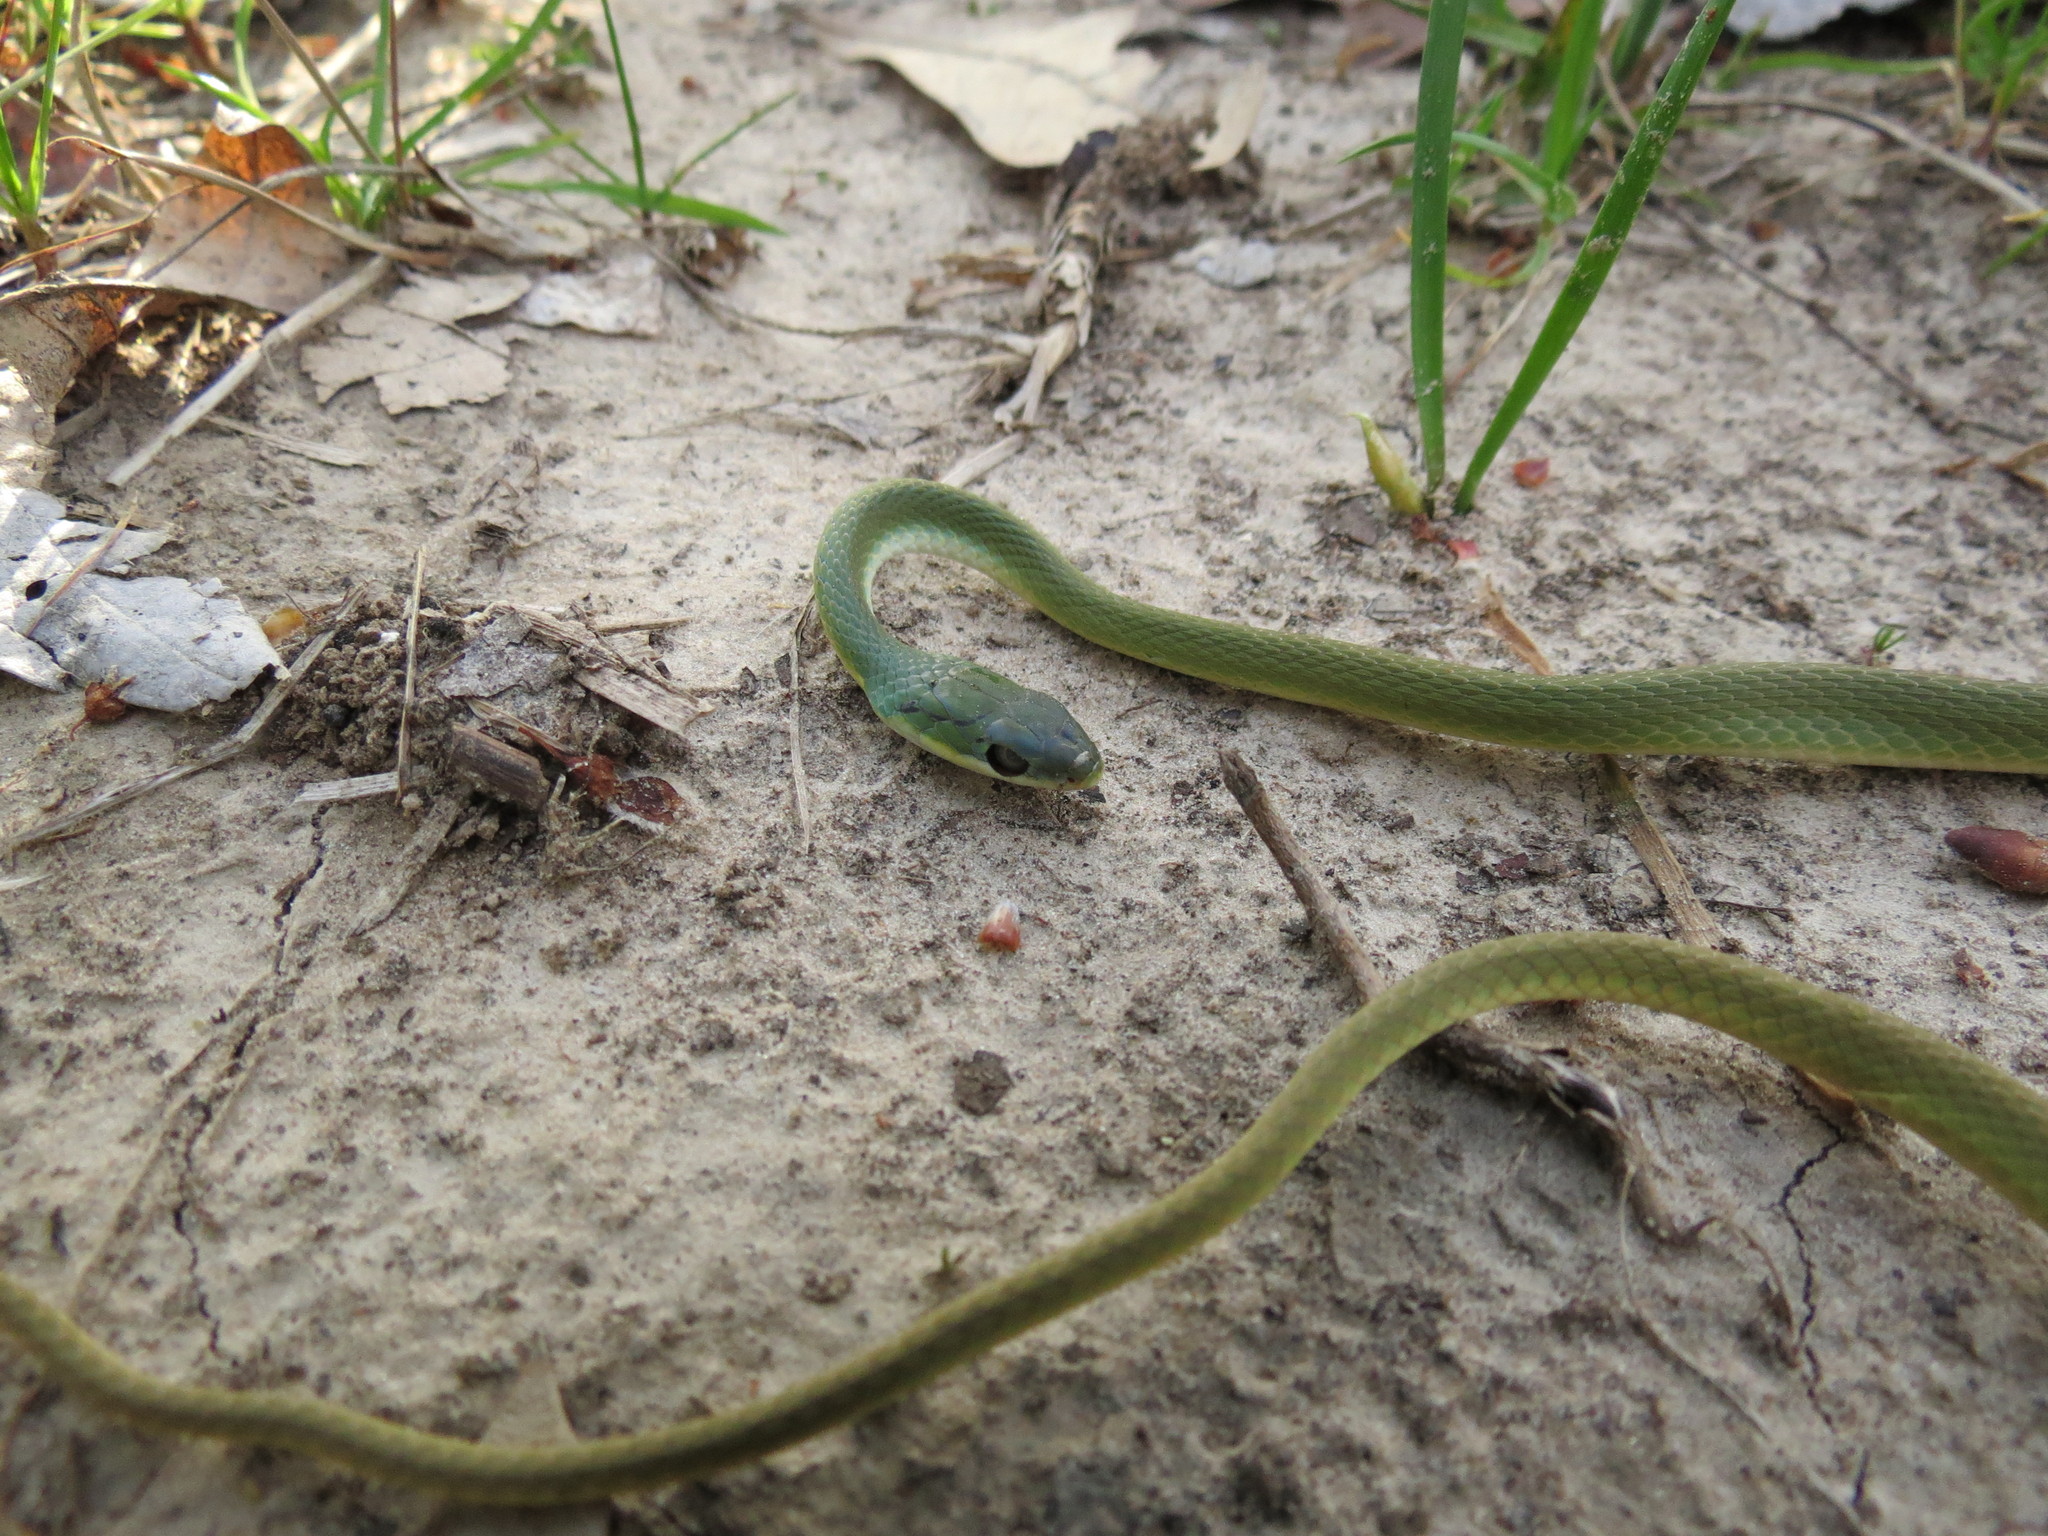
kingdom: Animalia
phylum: Chordata
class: Squamata
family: Colubridae
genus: Opheodrys
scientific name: Opheodrys aestivus
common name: Rough greensnake
